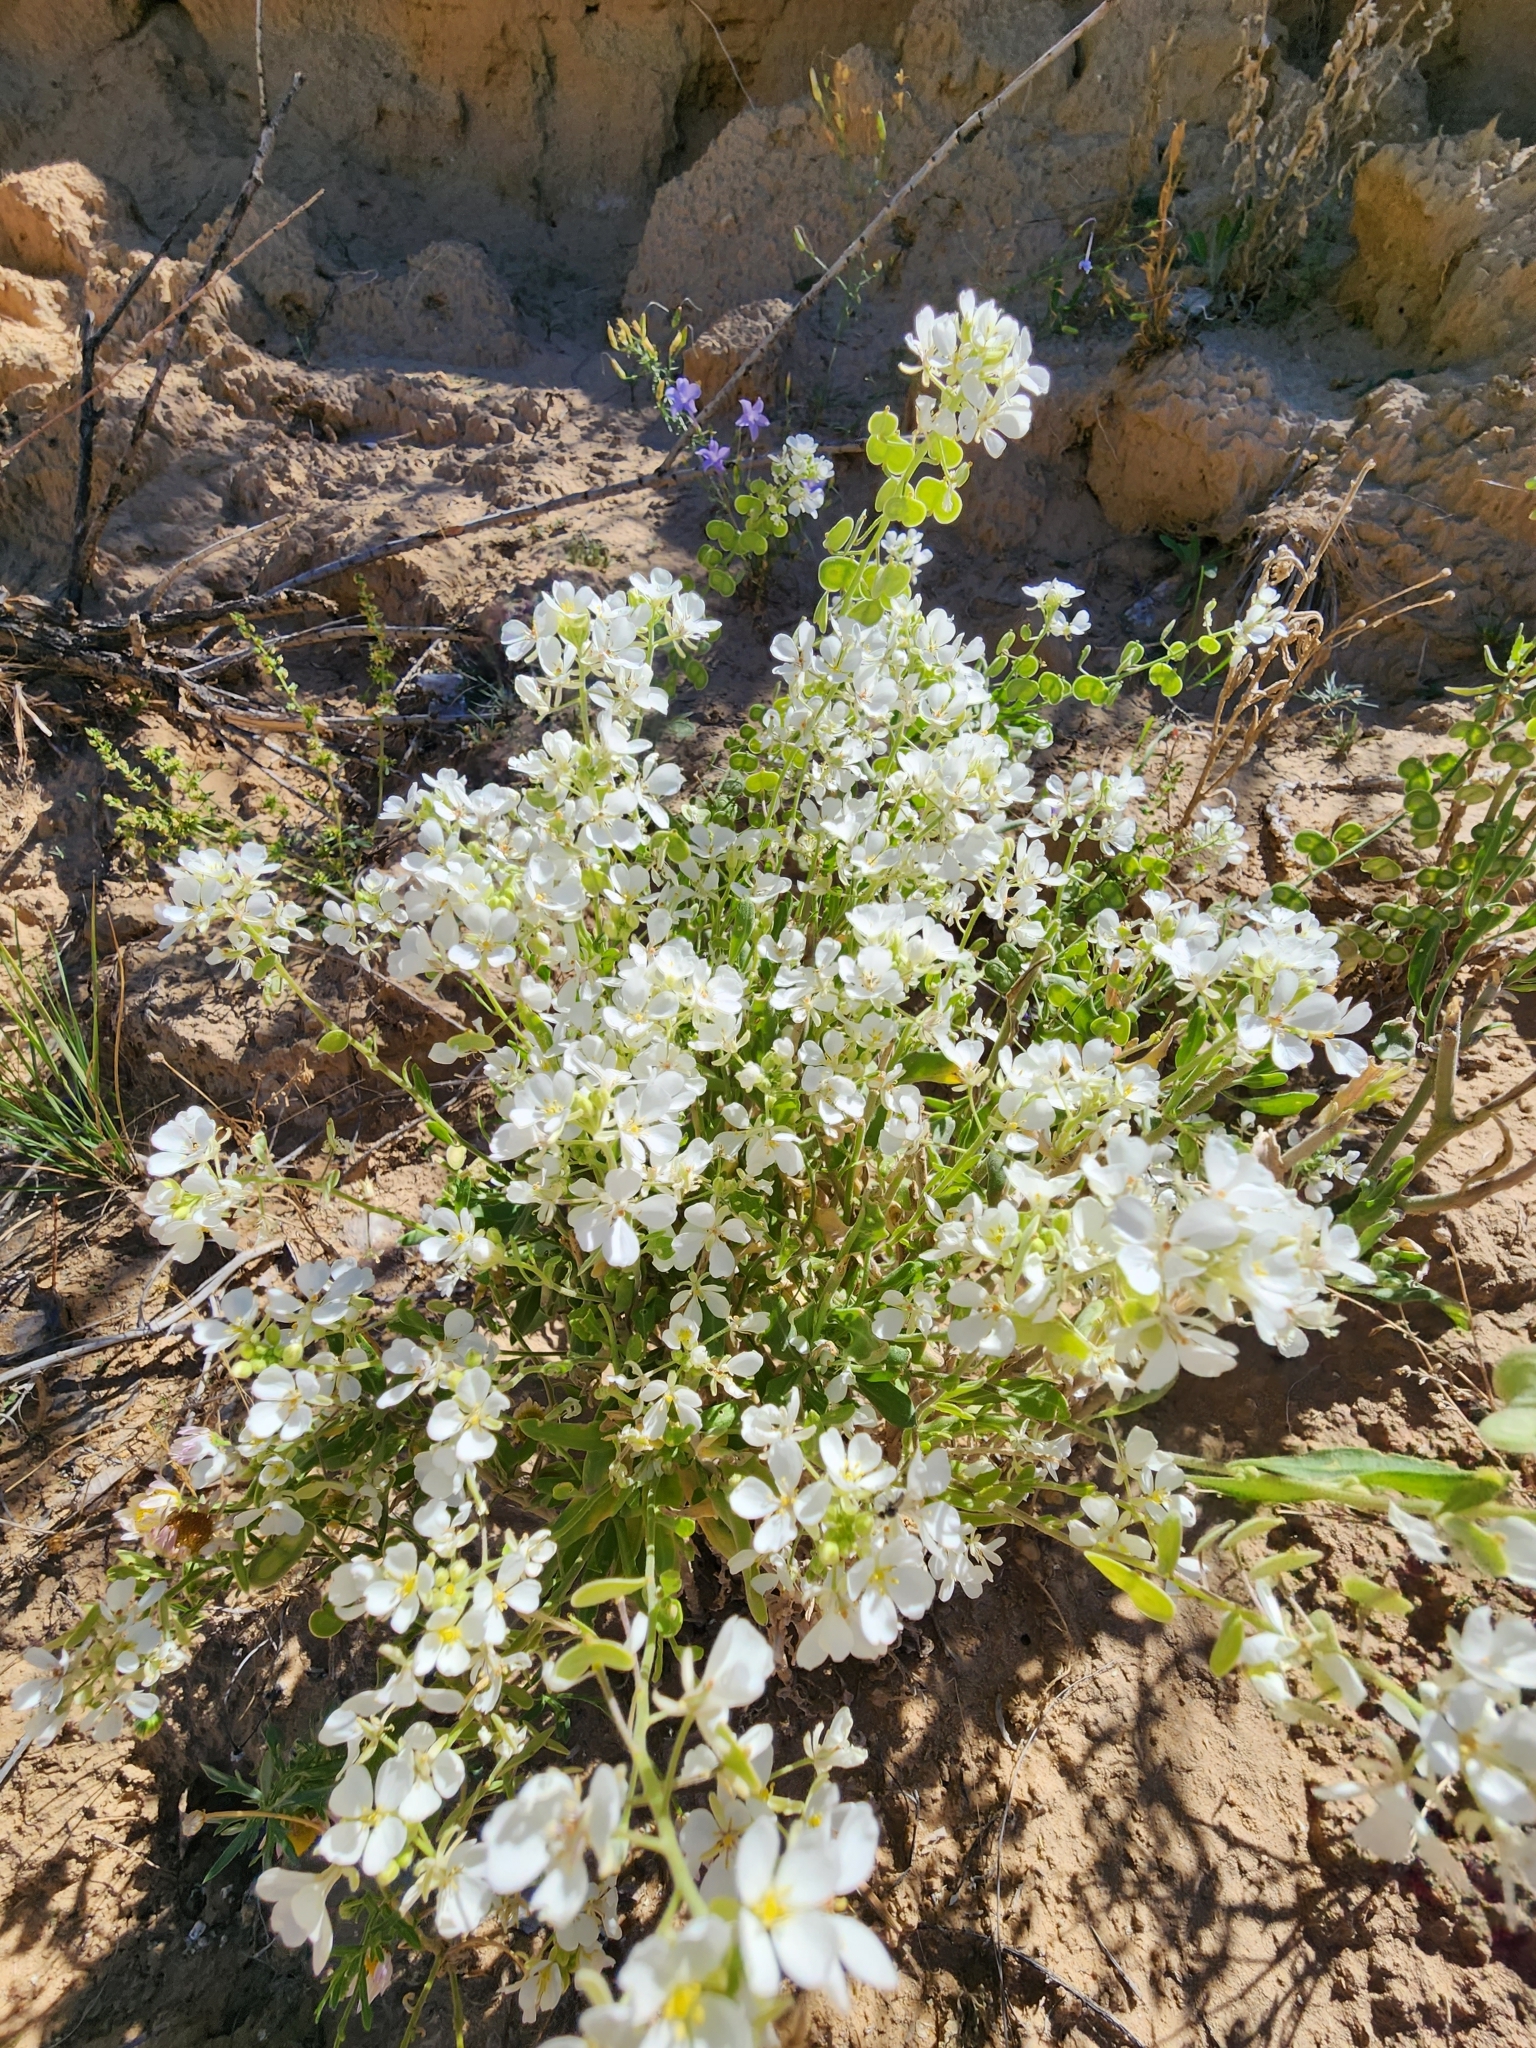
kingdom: Plantae
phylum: Tracheophyta
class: Magnoliopsida
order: Brassicales
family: Brassicaceae
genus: Dimorphocarpa
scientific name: Dimorphocarpa wislizenii
